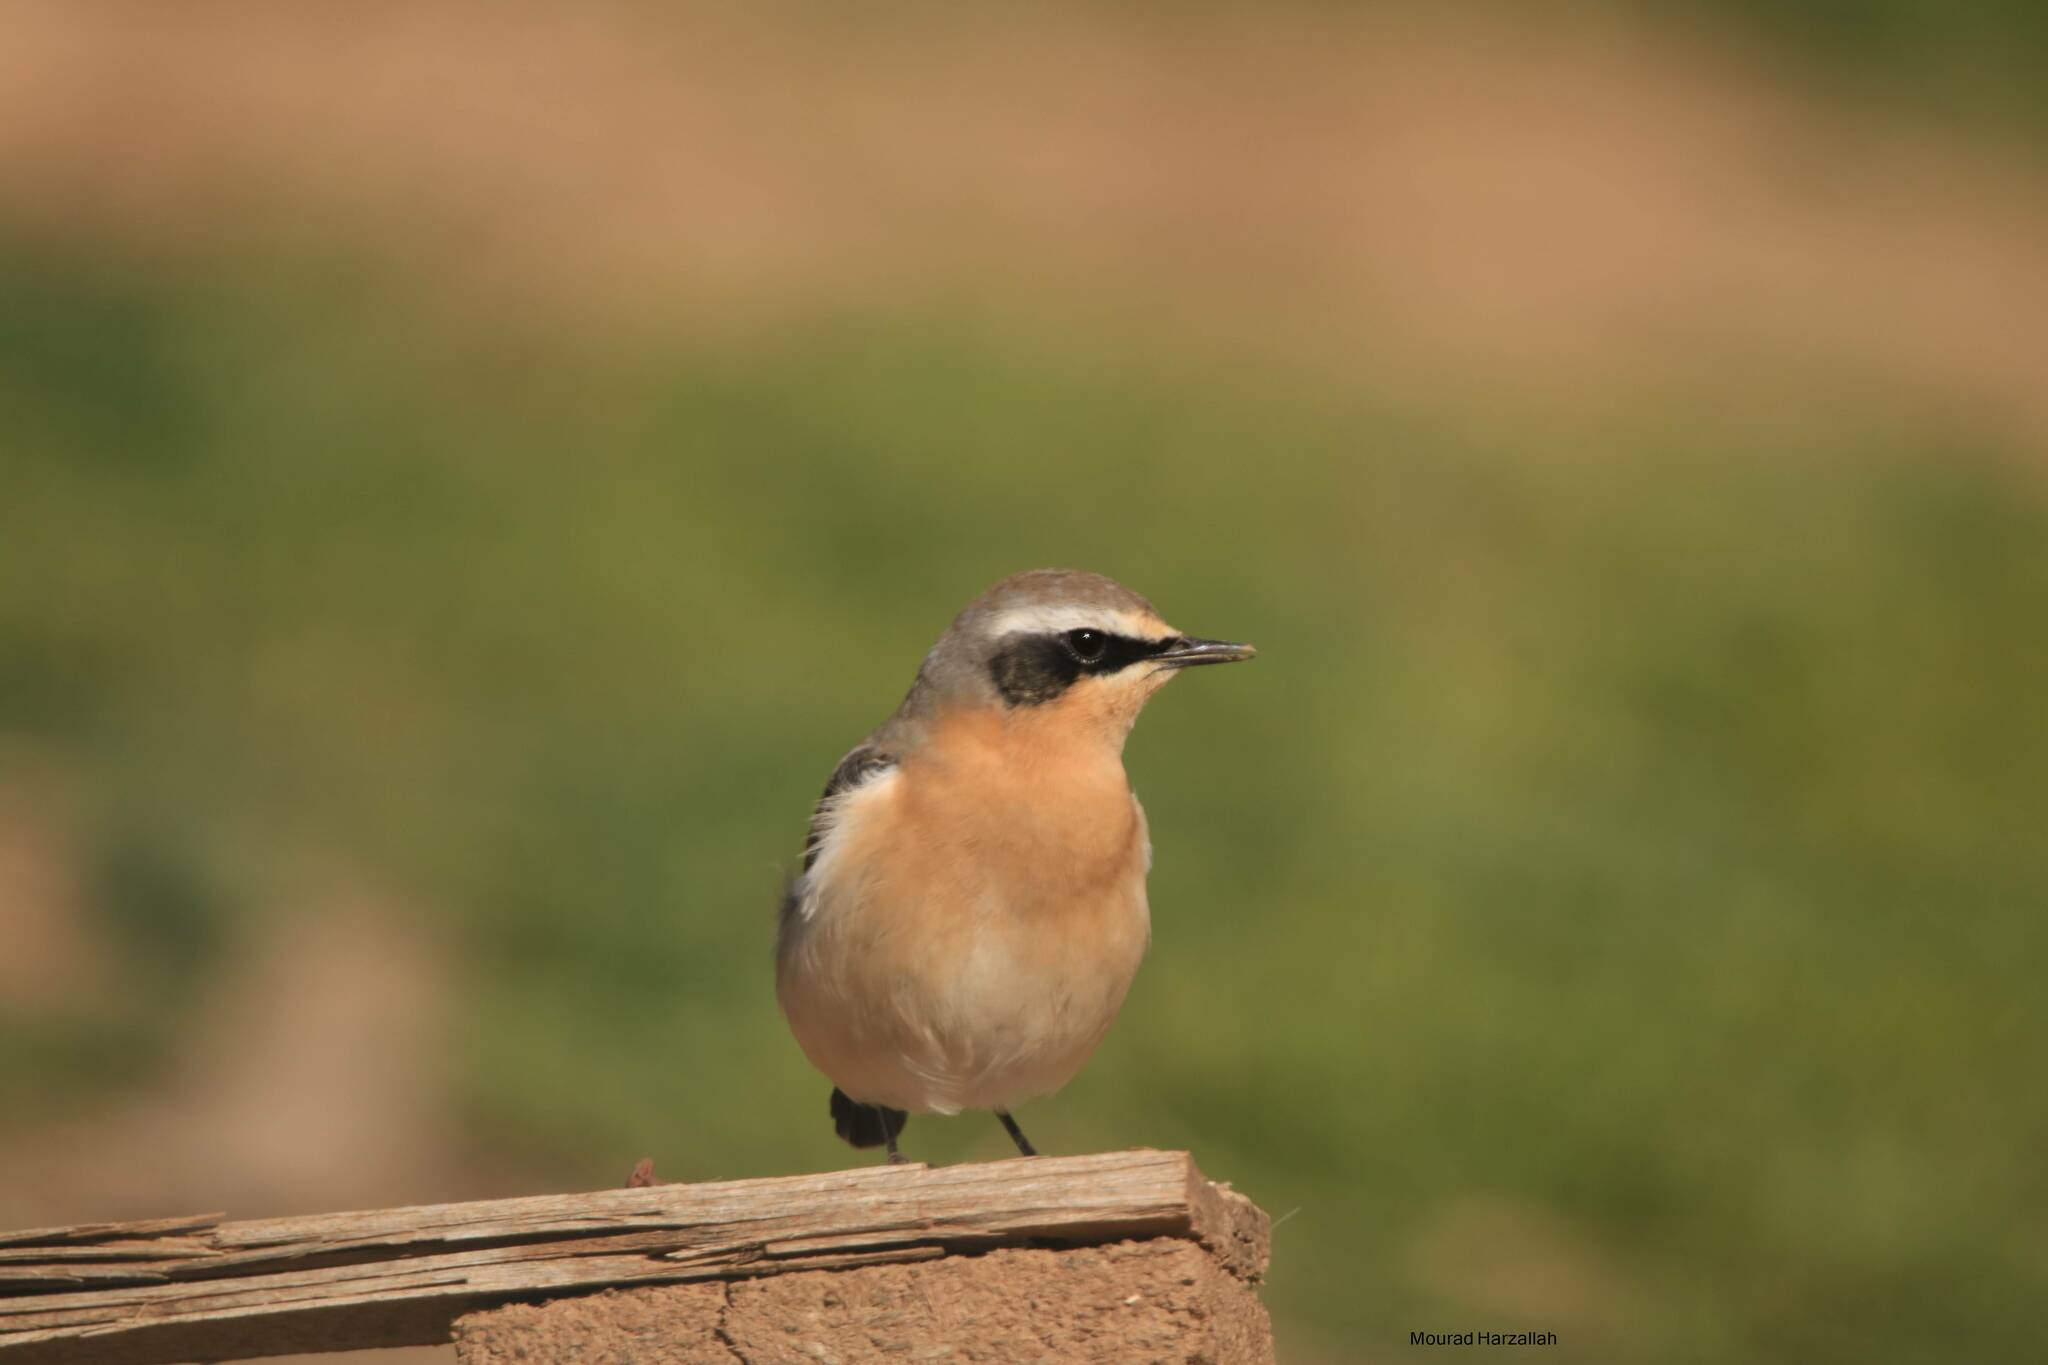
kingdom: Animalia
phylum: Chordata
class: Aves
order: Passeriformes
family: Muscicapidae
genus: Oenanthe
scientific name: Oenanthe oenanthe
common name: Northern wheatear
